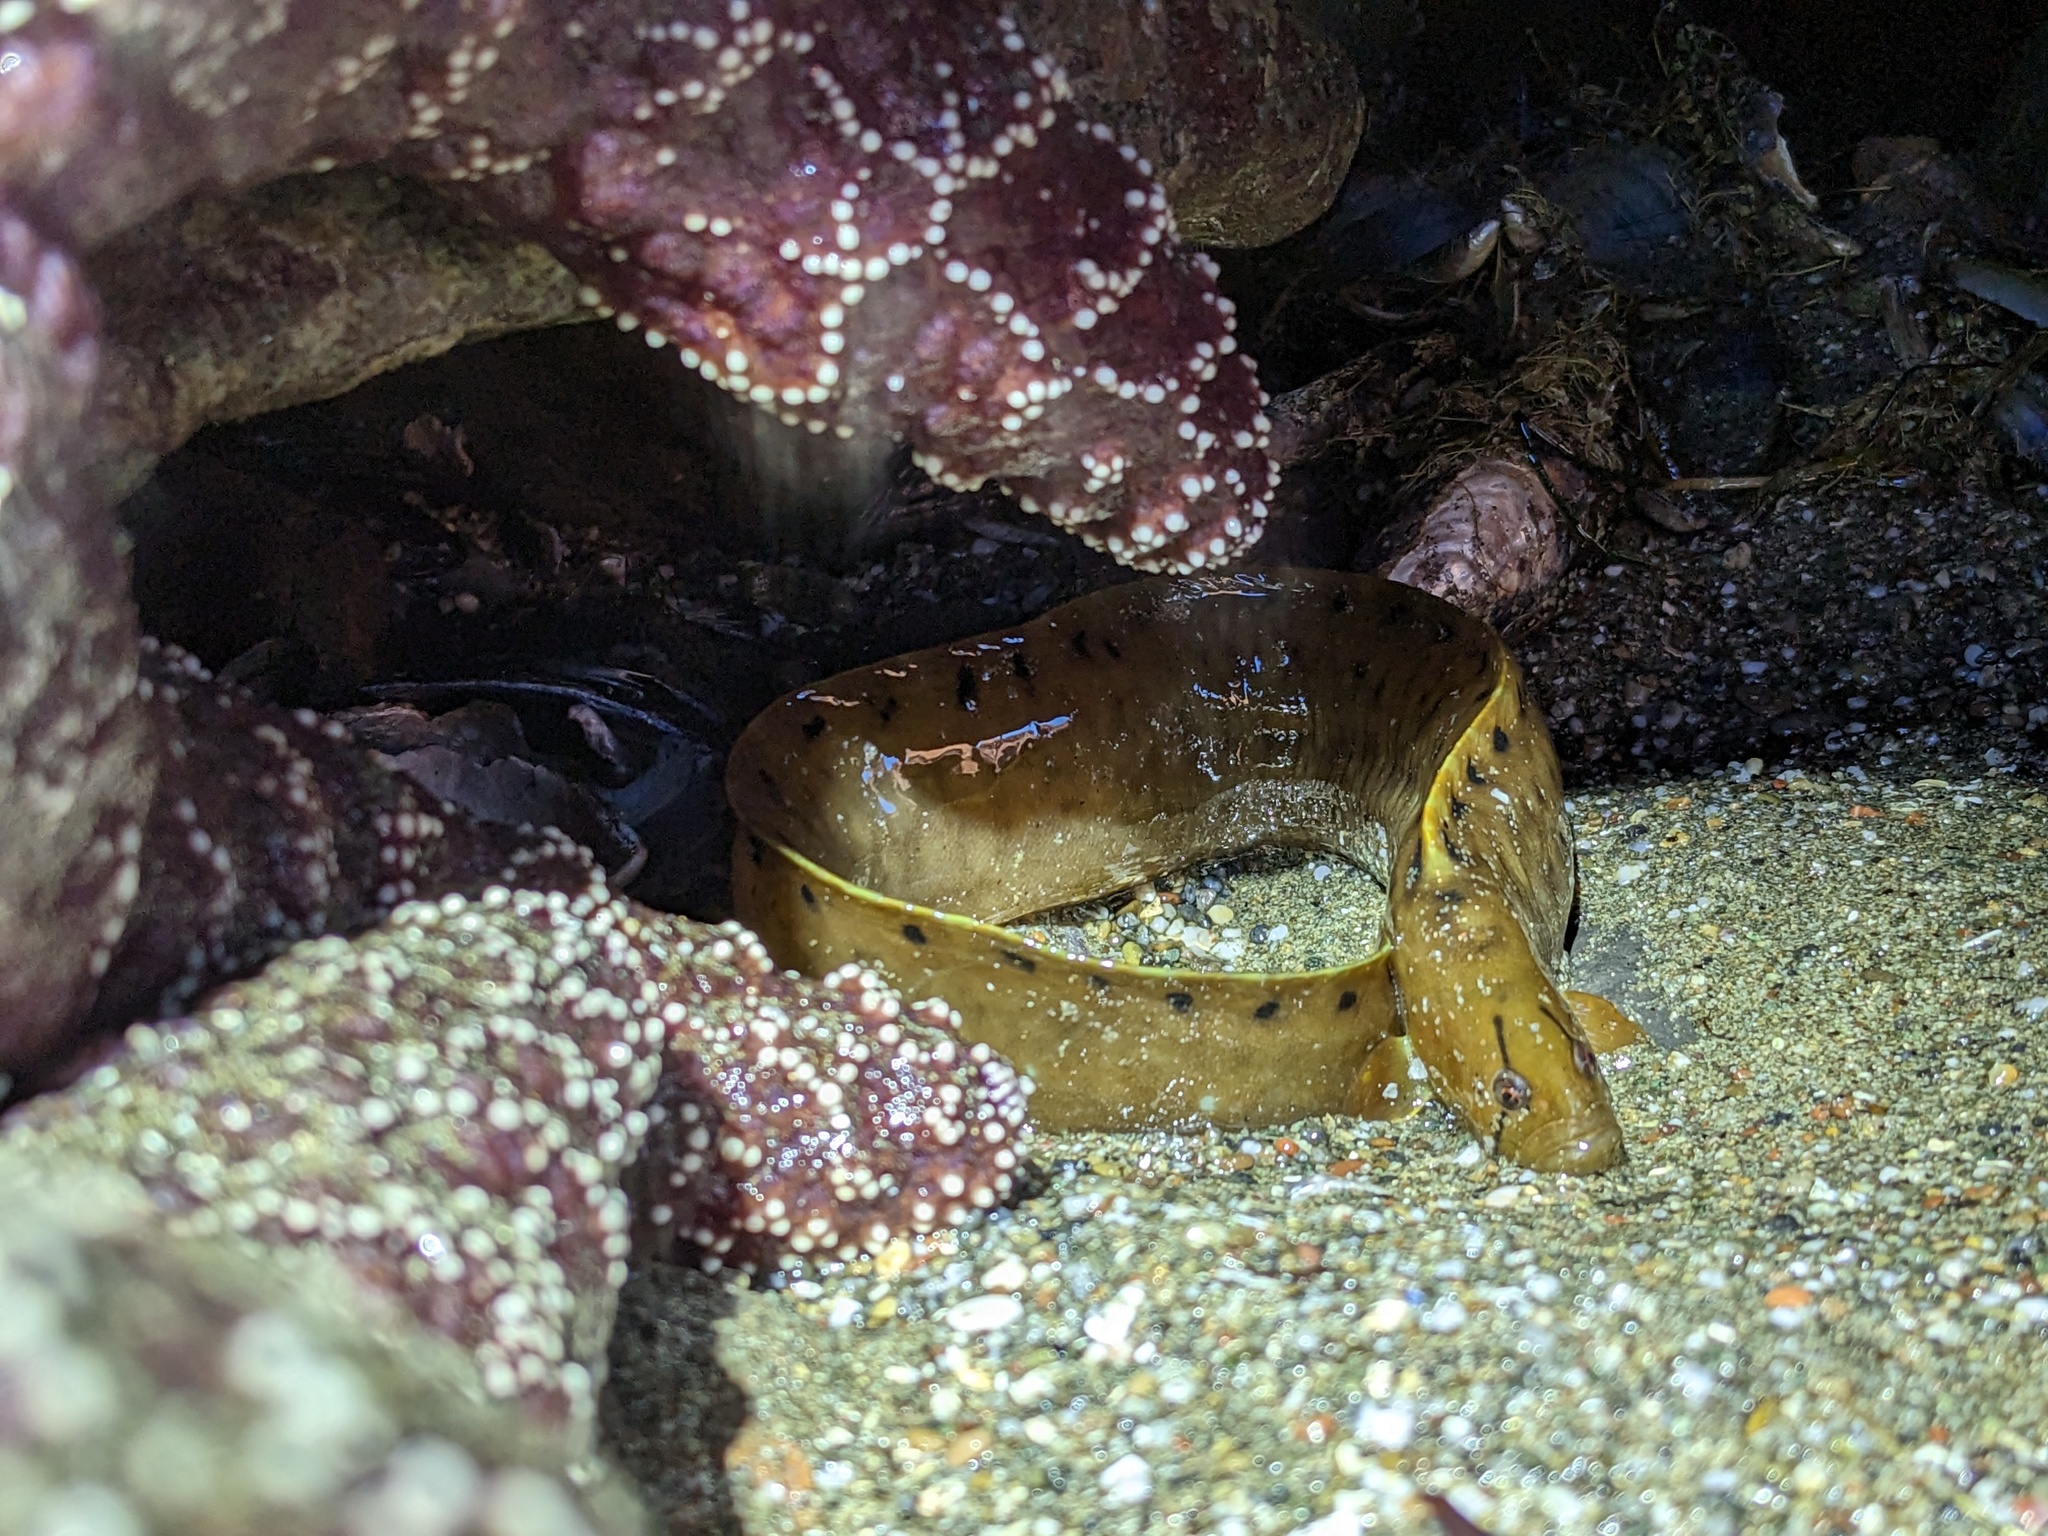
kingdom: Animalia
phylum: Chordata
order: Perciformes
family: Pholidae
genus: Apodichthys
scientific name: Apodichthys flavidus
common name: Penpoint gunnel
